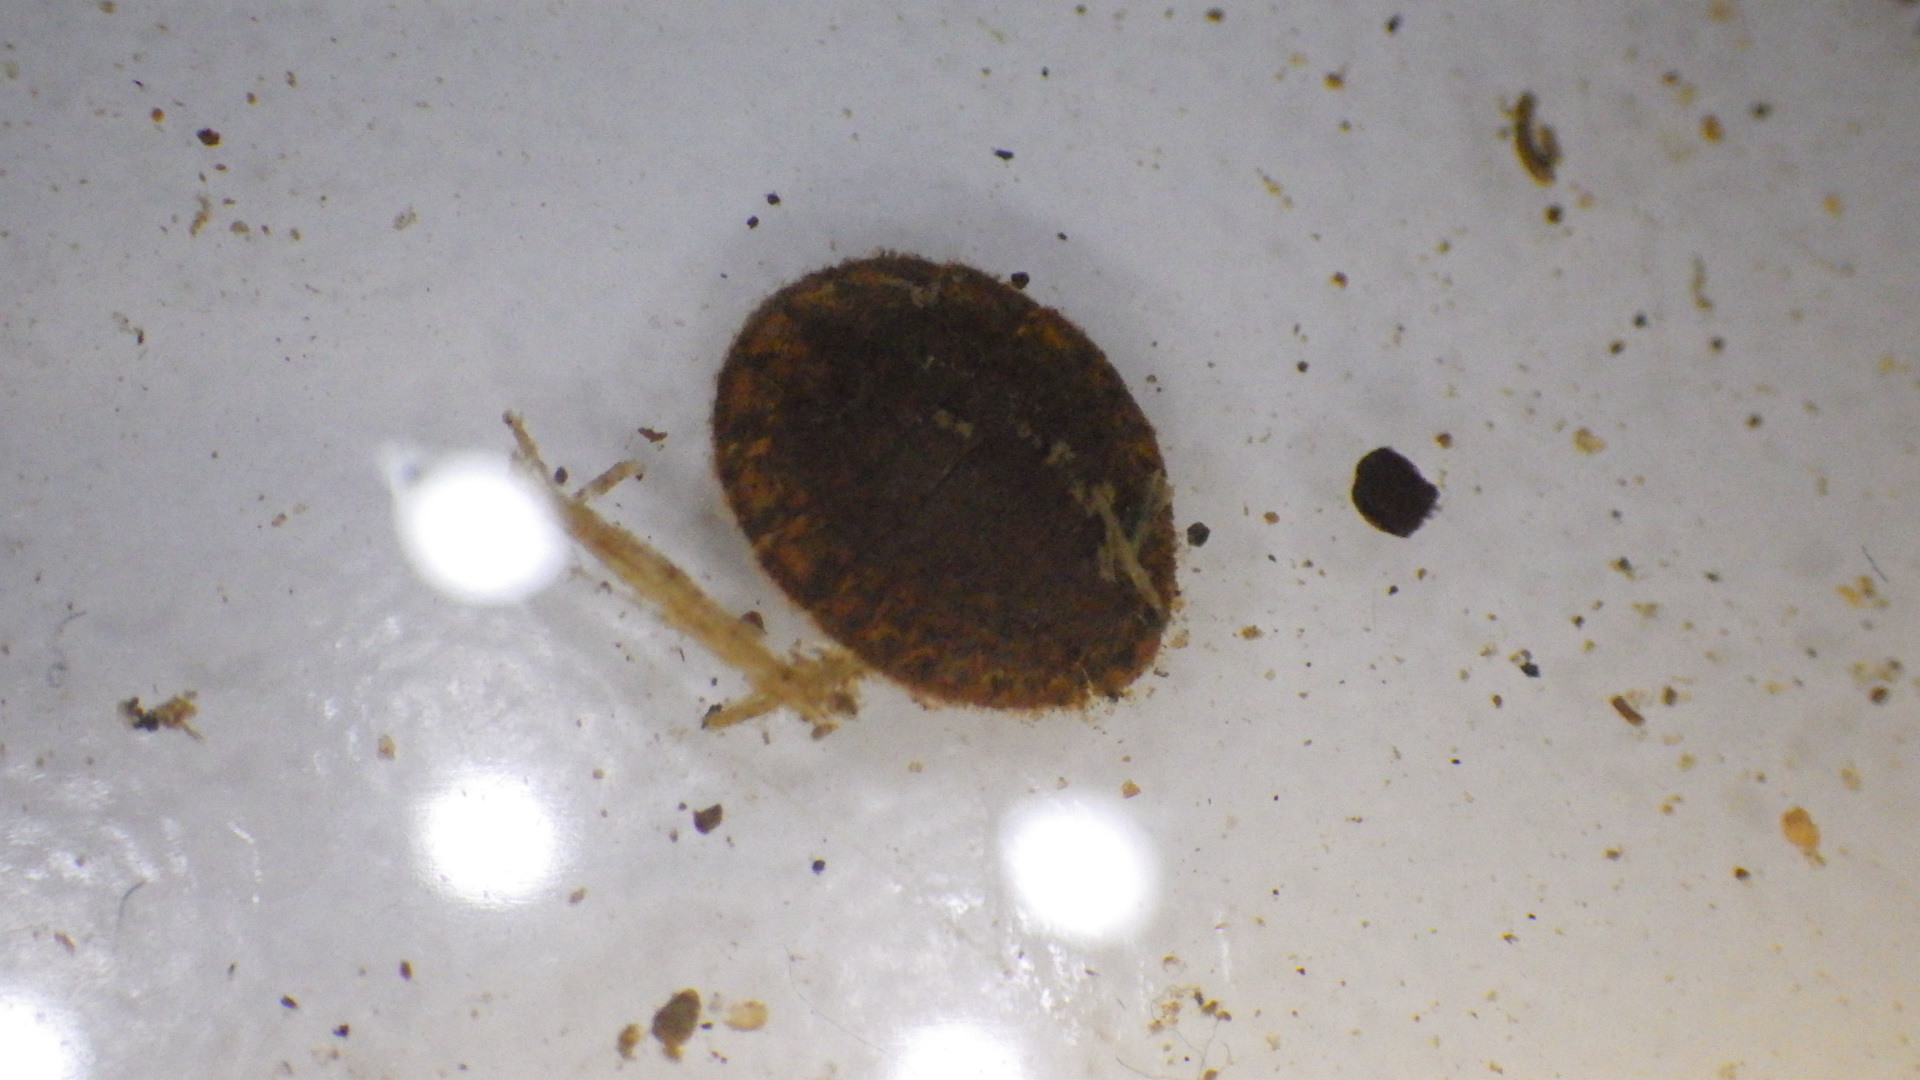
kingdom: Animalia
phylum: Arthropoda
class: Insecta
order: Coleoptera
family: Psephenidae
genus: Psephenus
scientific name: Psephenus herricki
